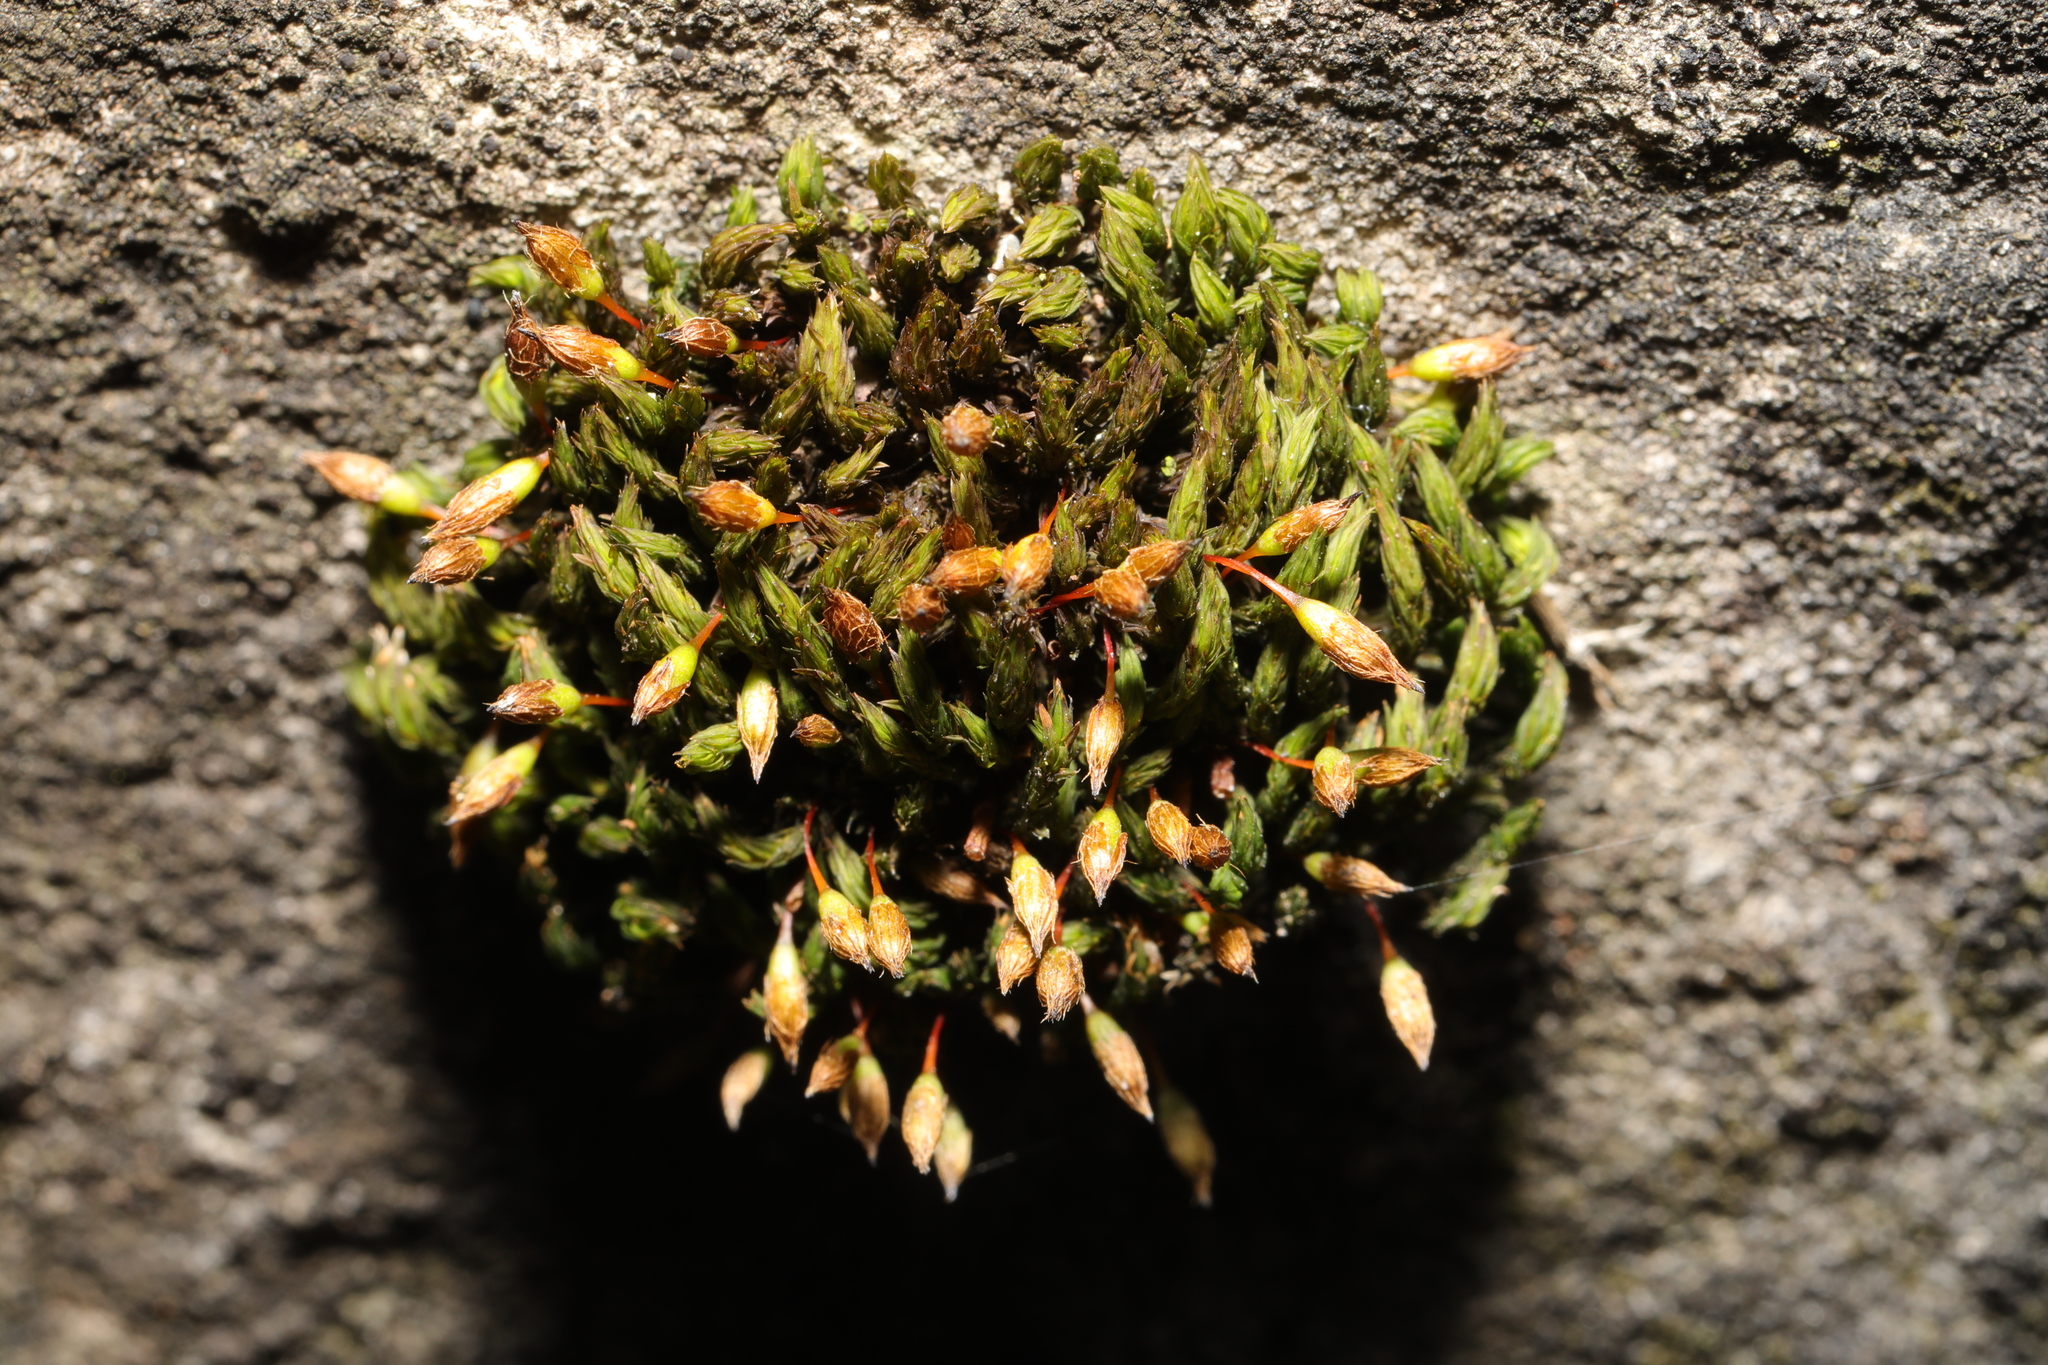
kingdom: Plantae
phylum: Bryophyta
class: Bryopsida
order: Orthotrichales
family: Orthotrichaceae
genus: Orthotrichum
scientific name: Orthotrichum anomalum
